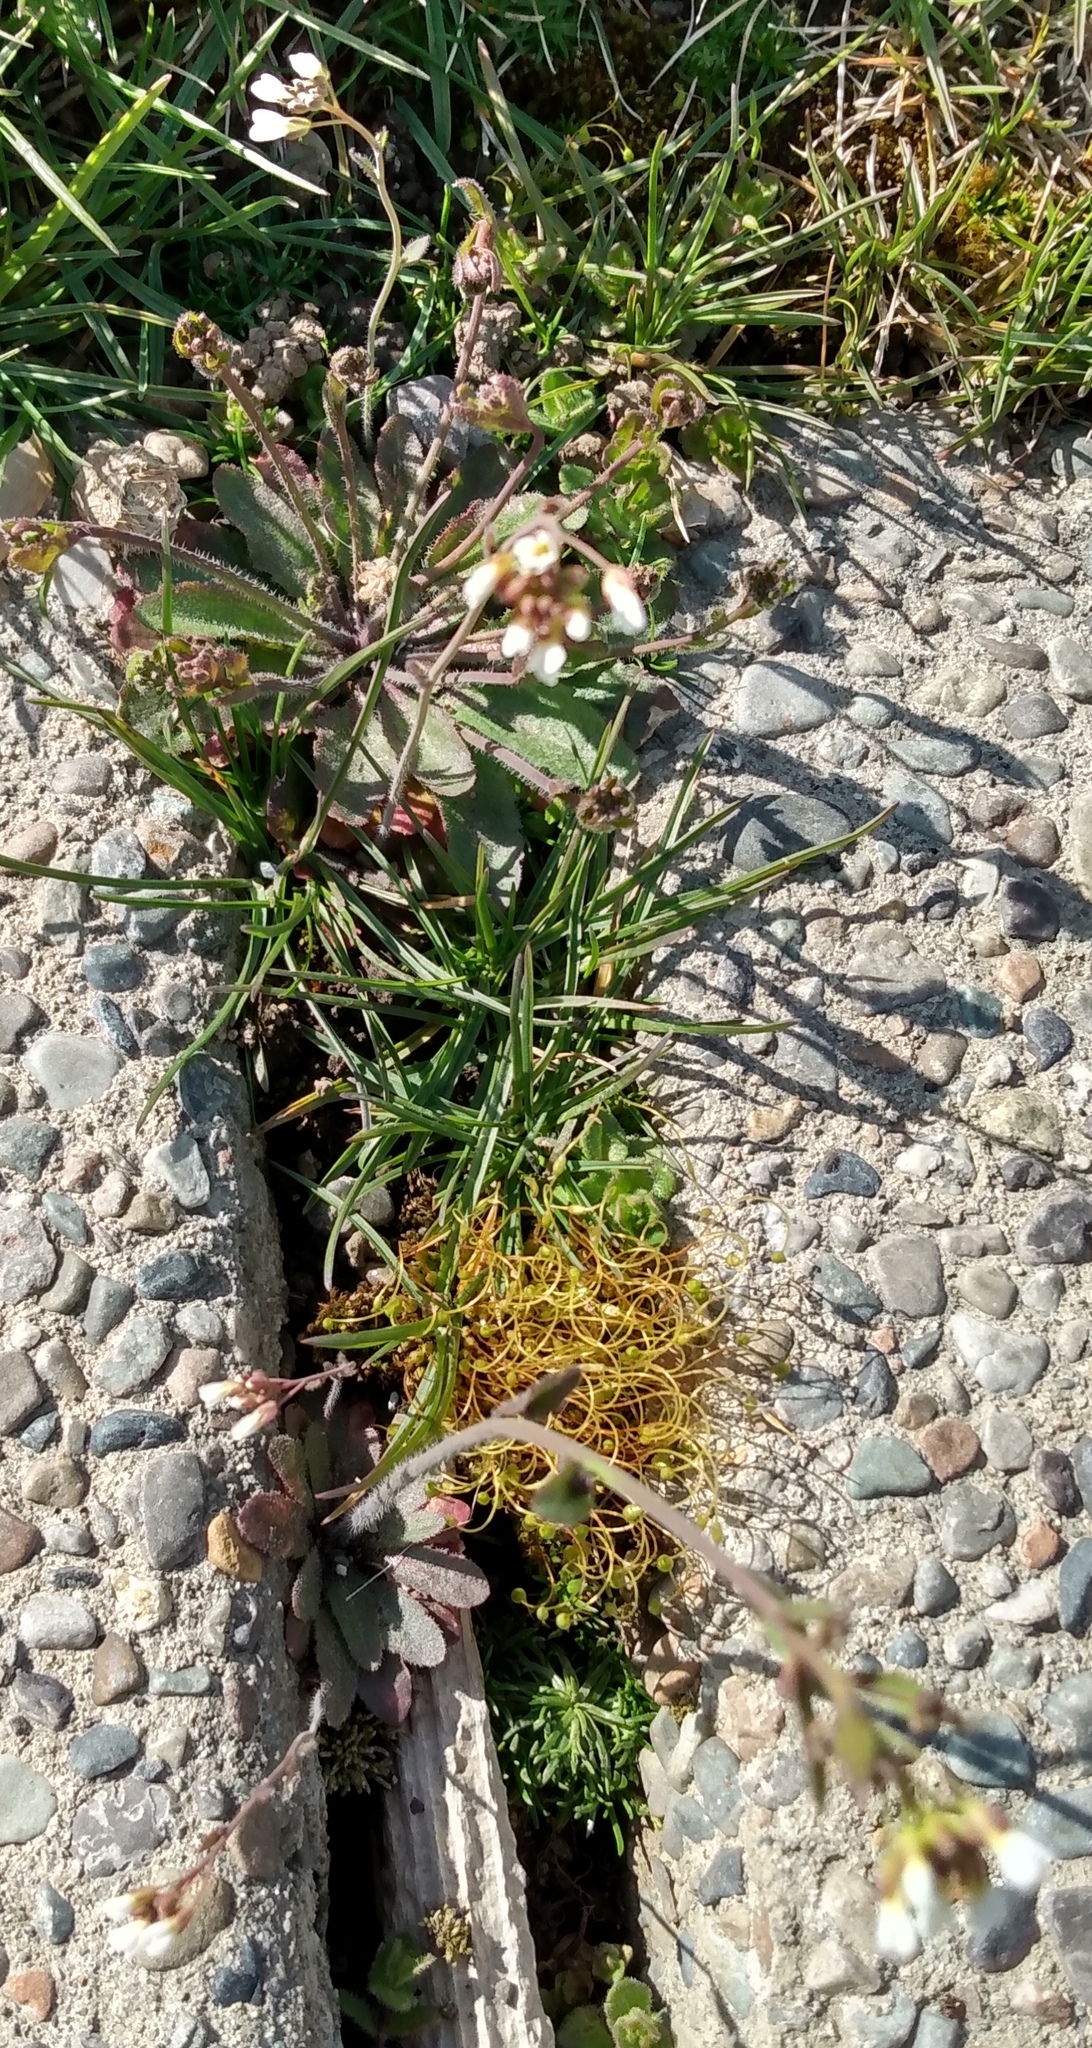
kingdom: Plantae
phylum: Tracheophyta
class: Magnoliopsida
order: Brassicales
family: Brassicaceae
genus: Arabidopsis
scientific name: Arabidopsis thaliana
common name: Thale cress
